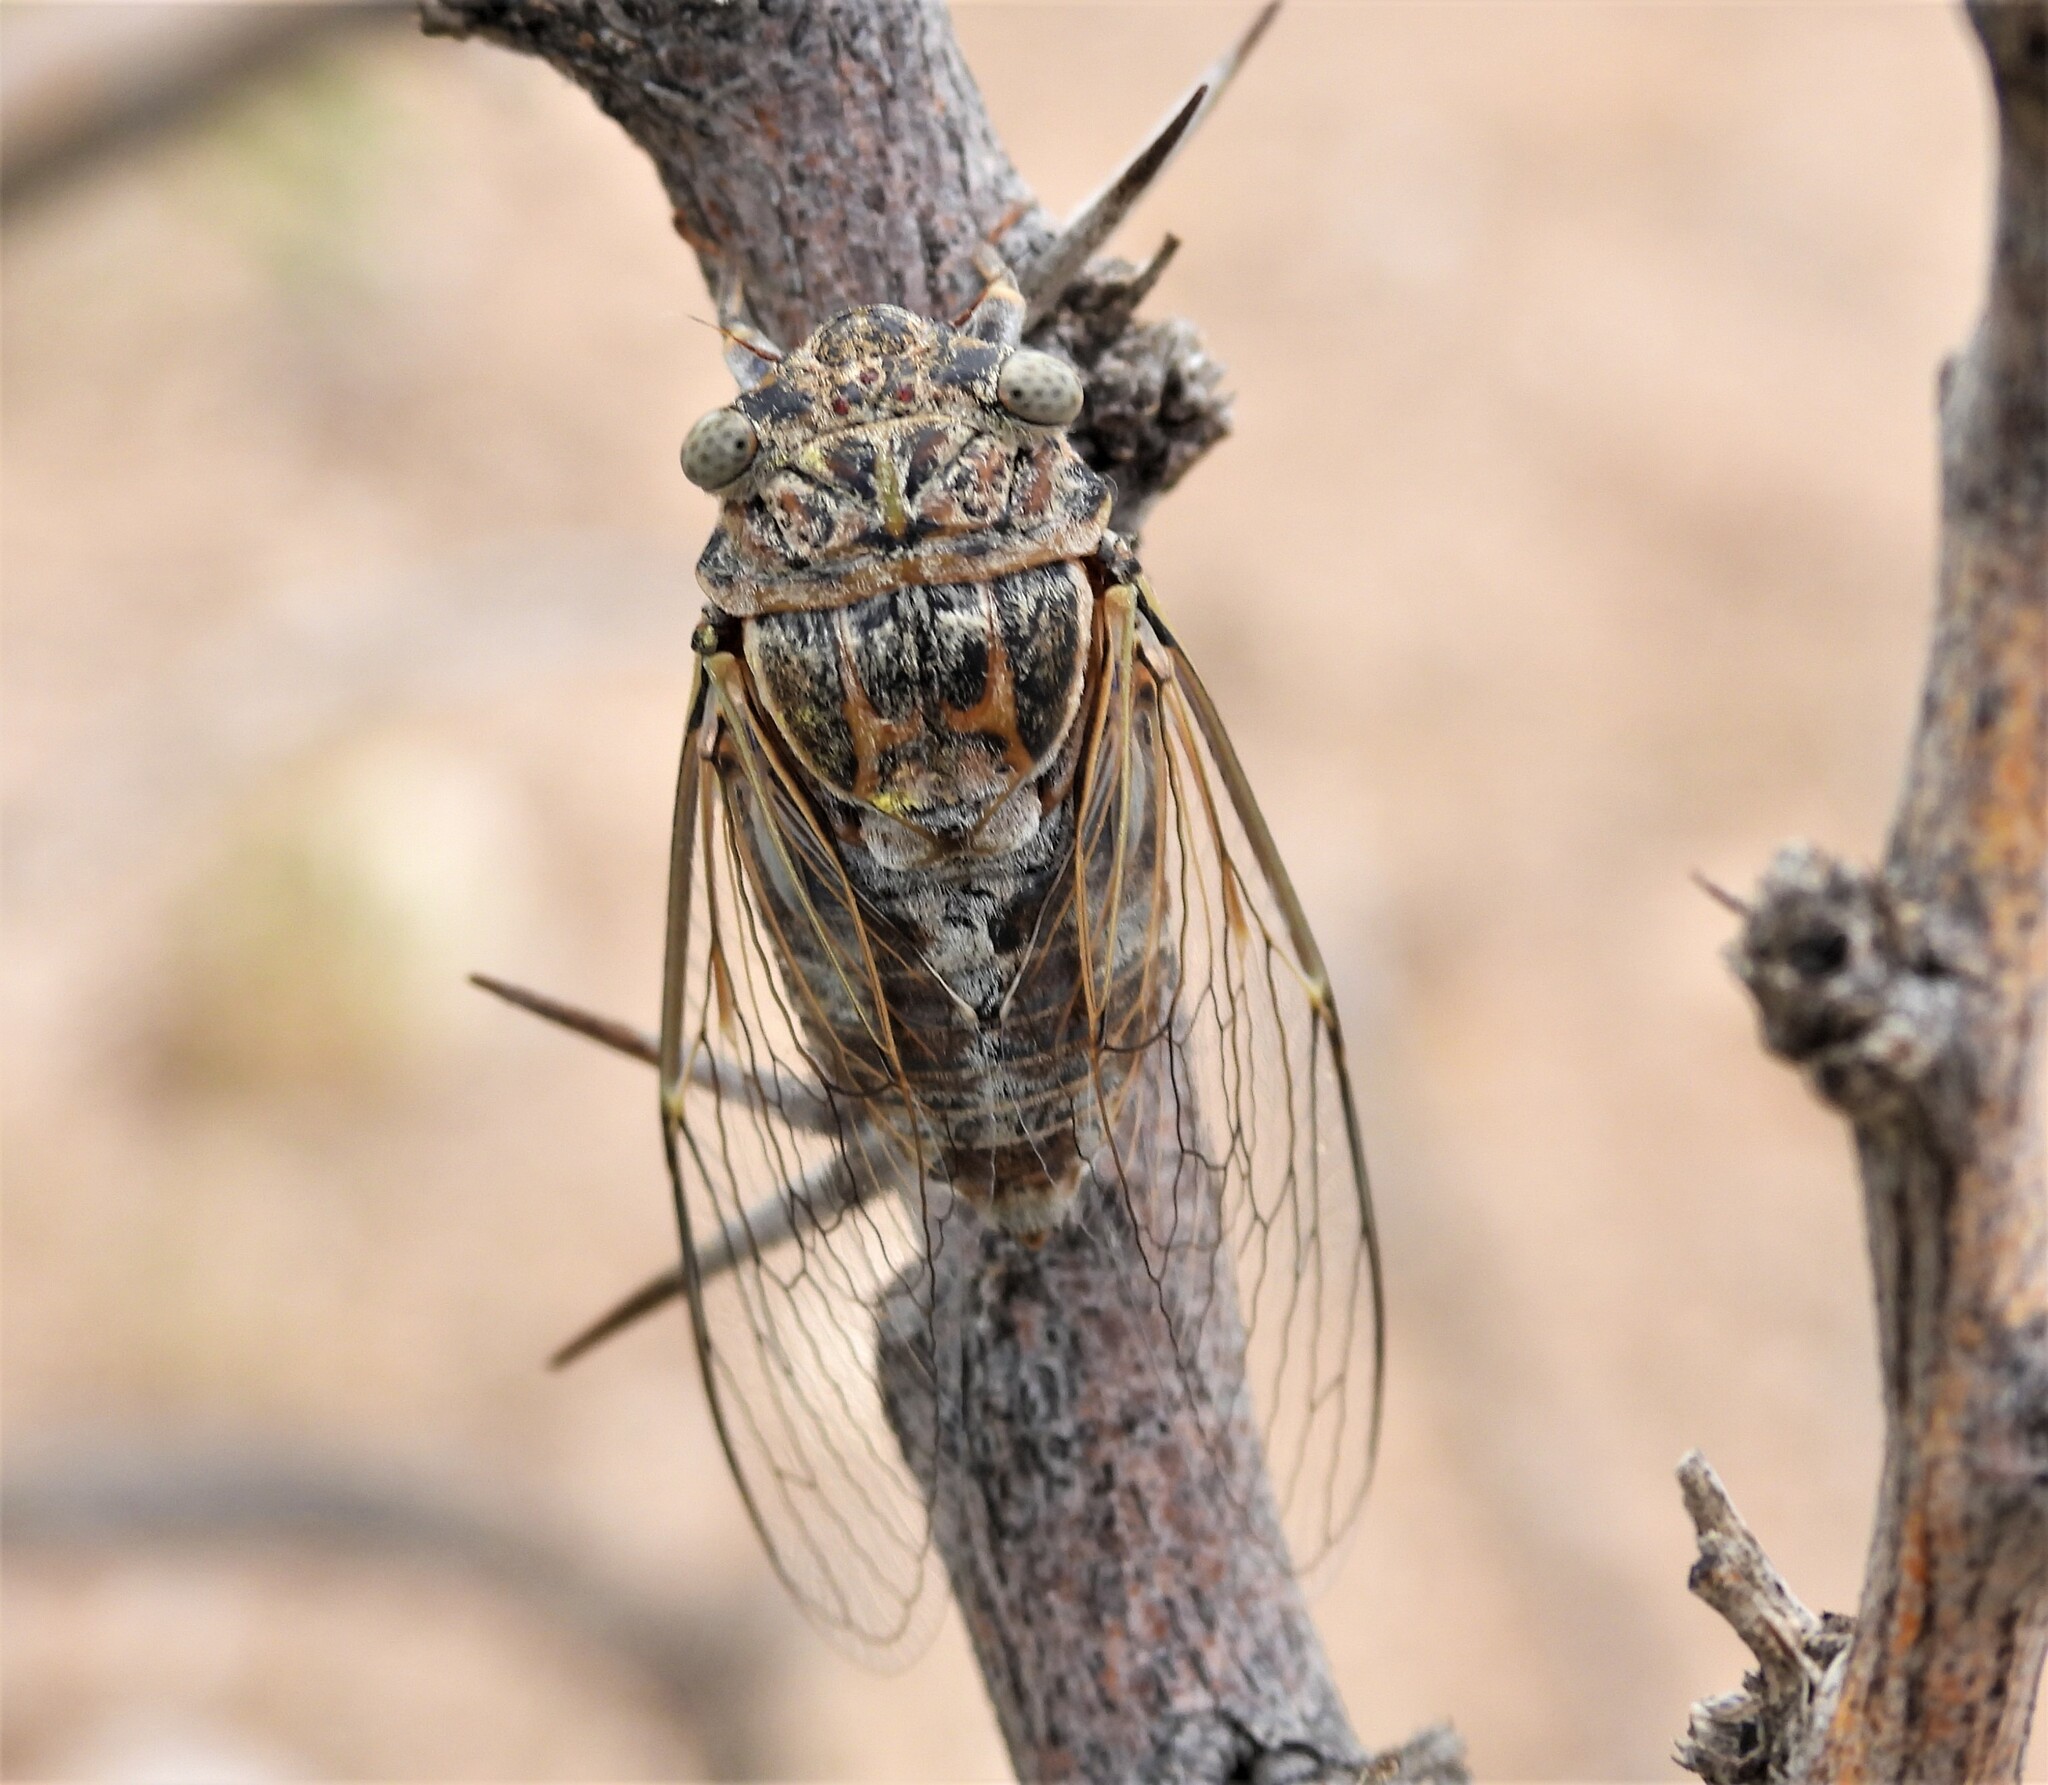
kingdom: Animalia
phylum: Arthropoda
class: Insecta
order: Hemiptera
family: Cicadidae
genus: Diceroprocta
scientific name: Diceroprocta eugraphica
